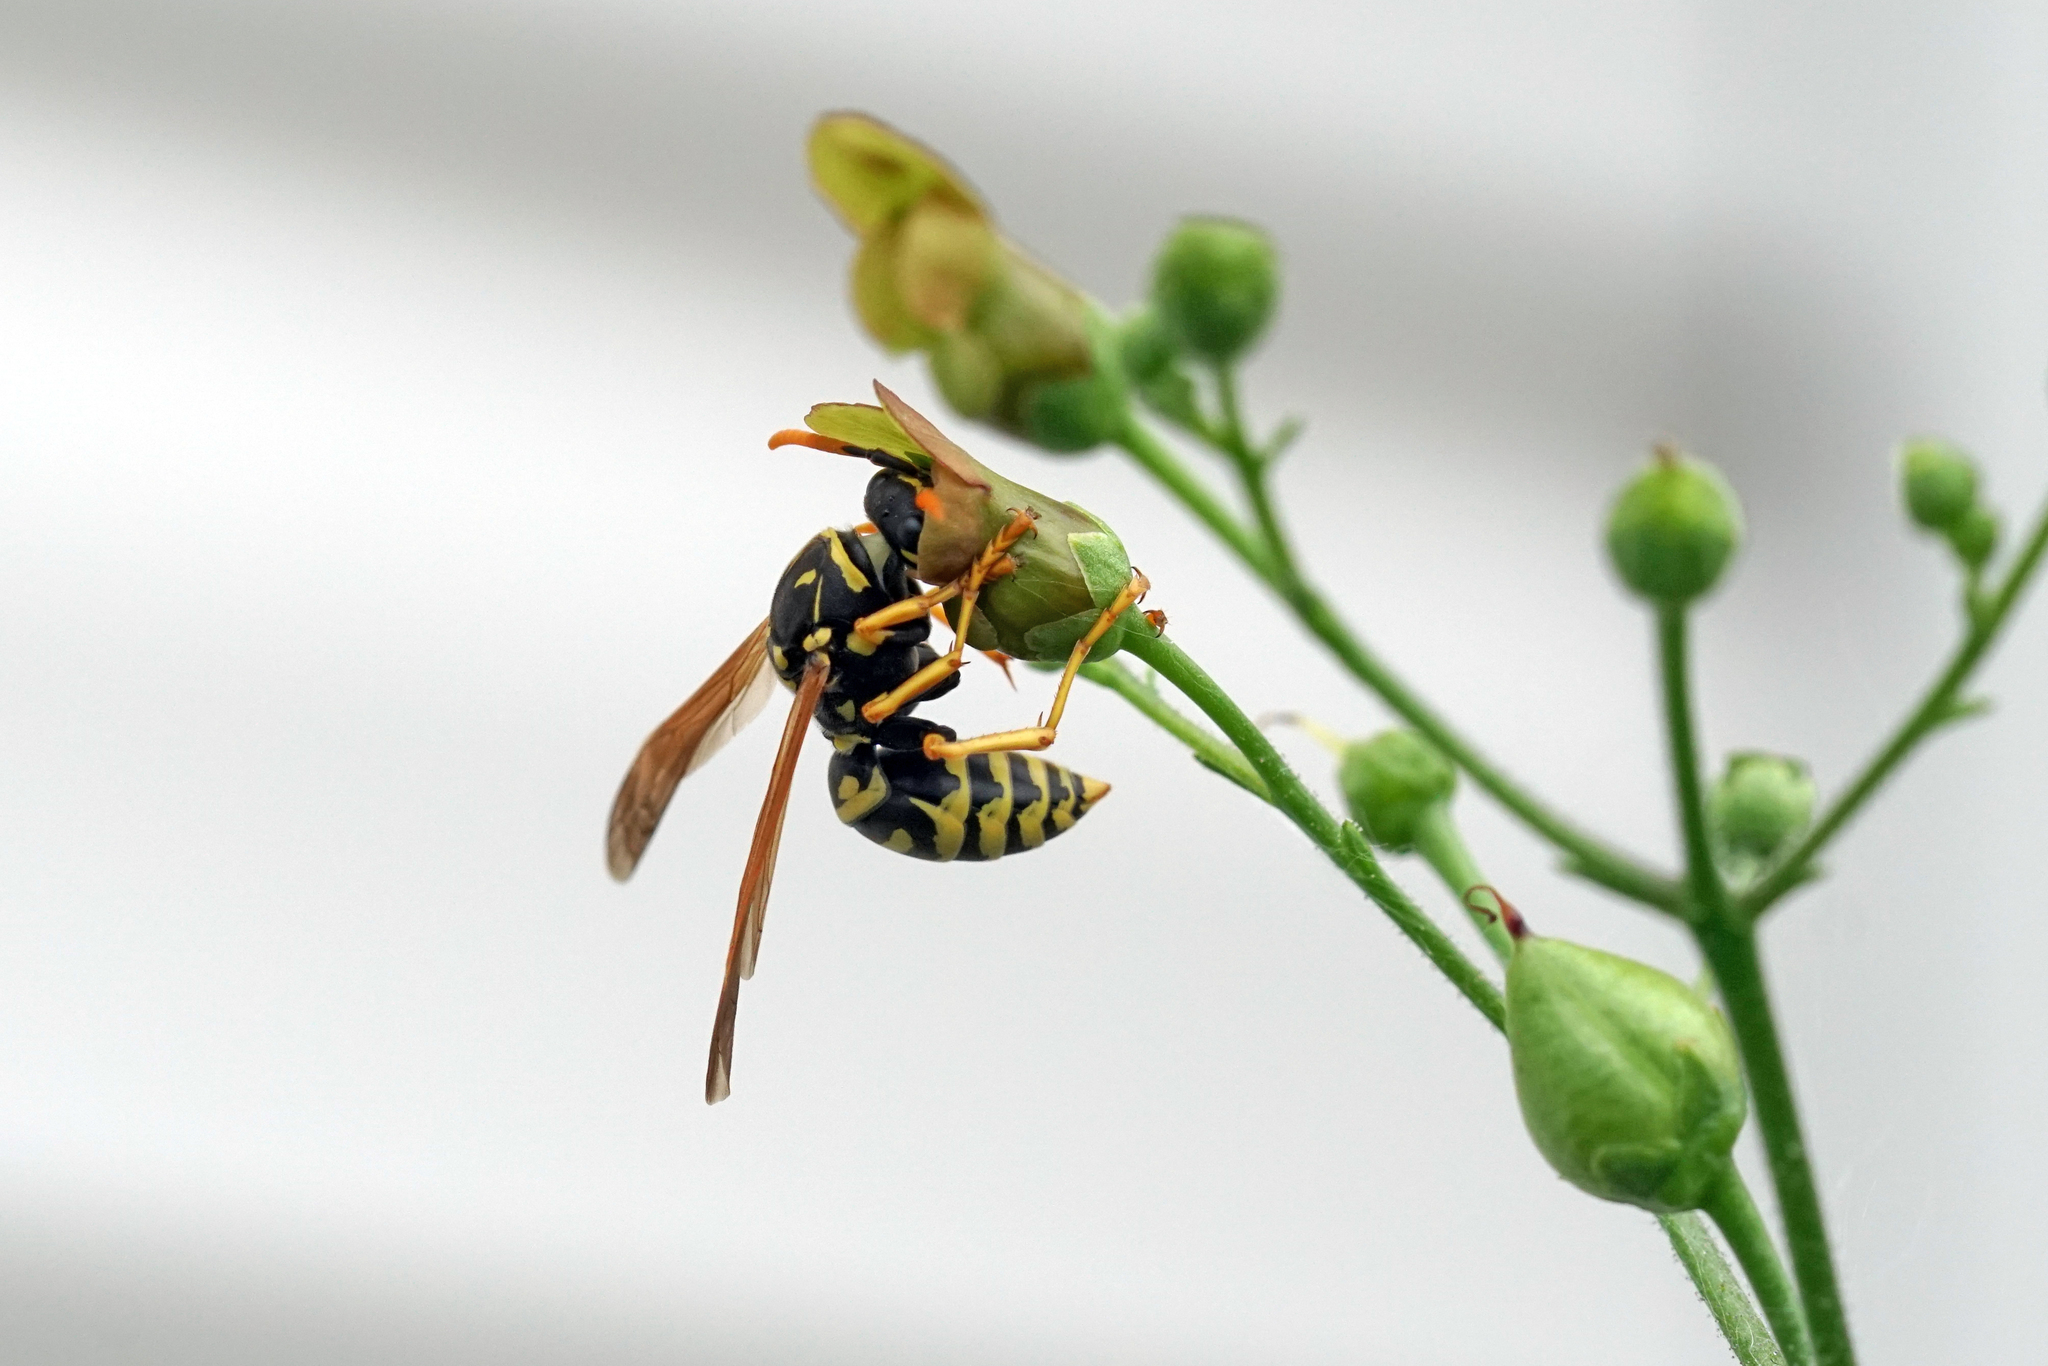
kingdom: Animalia
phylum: Arthropoda
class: Insecta
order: Hymenoptera
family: Eumenidae
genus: Polistes
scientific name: Polistes dominula
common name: Paper wasp
